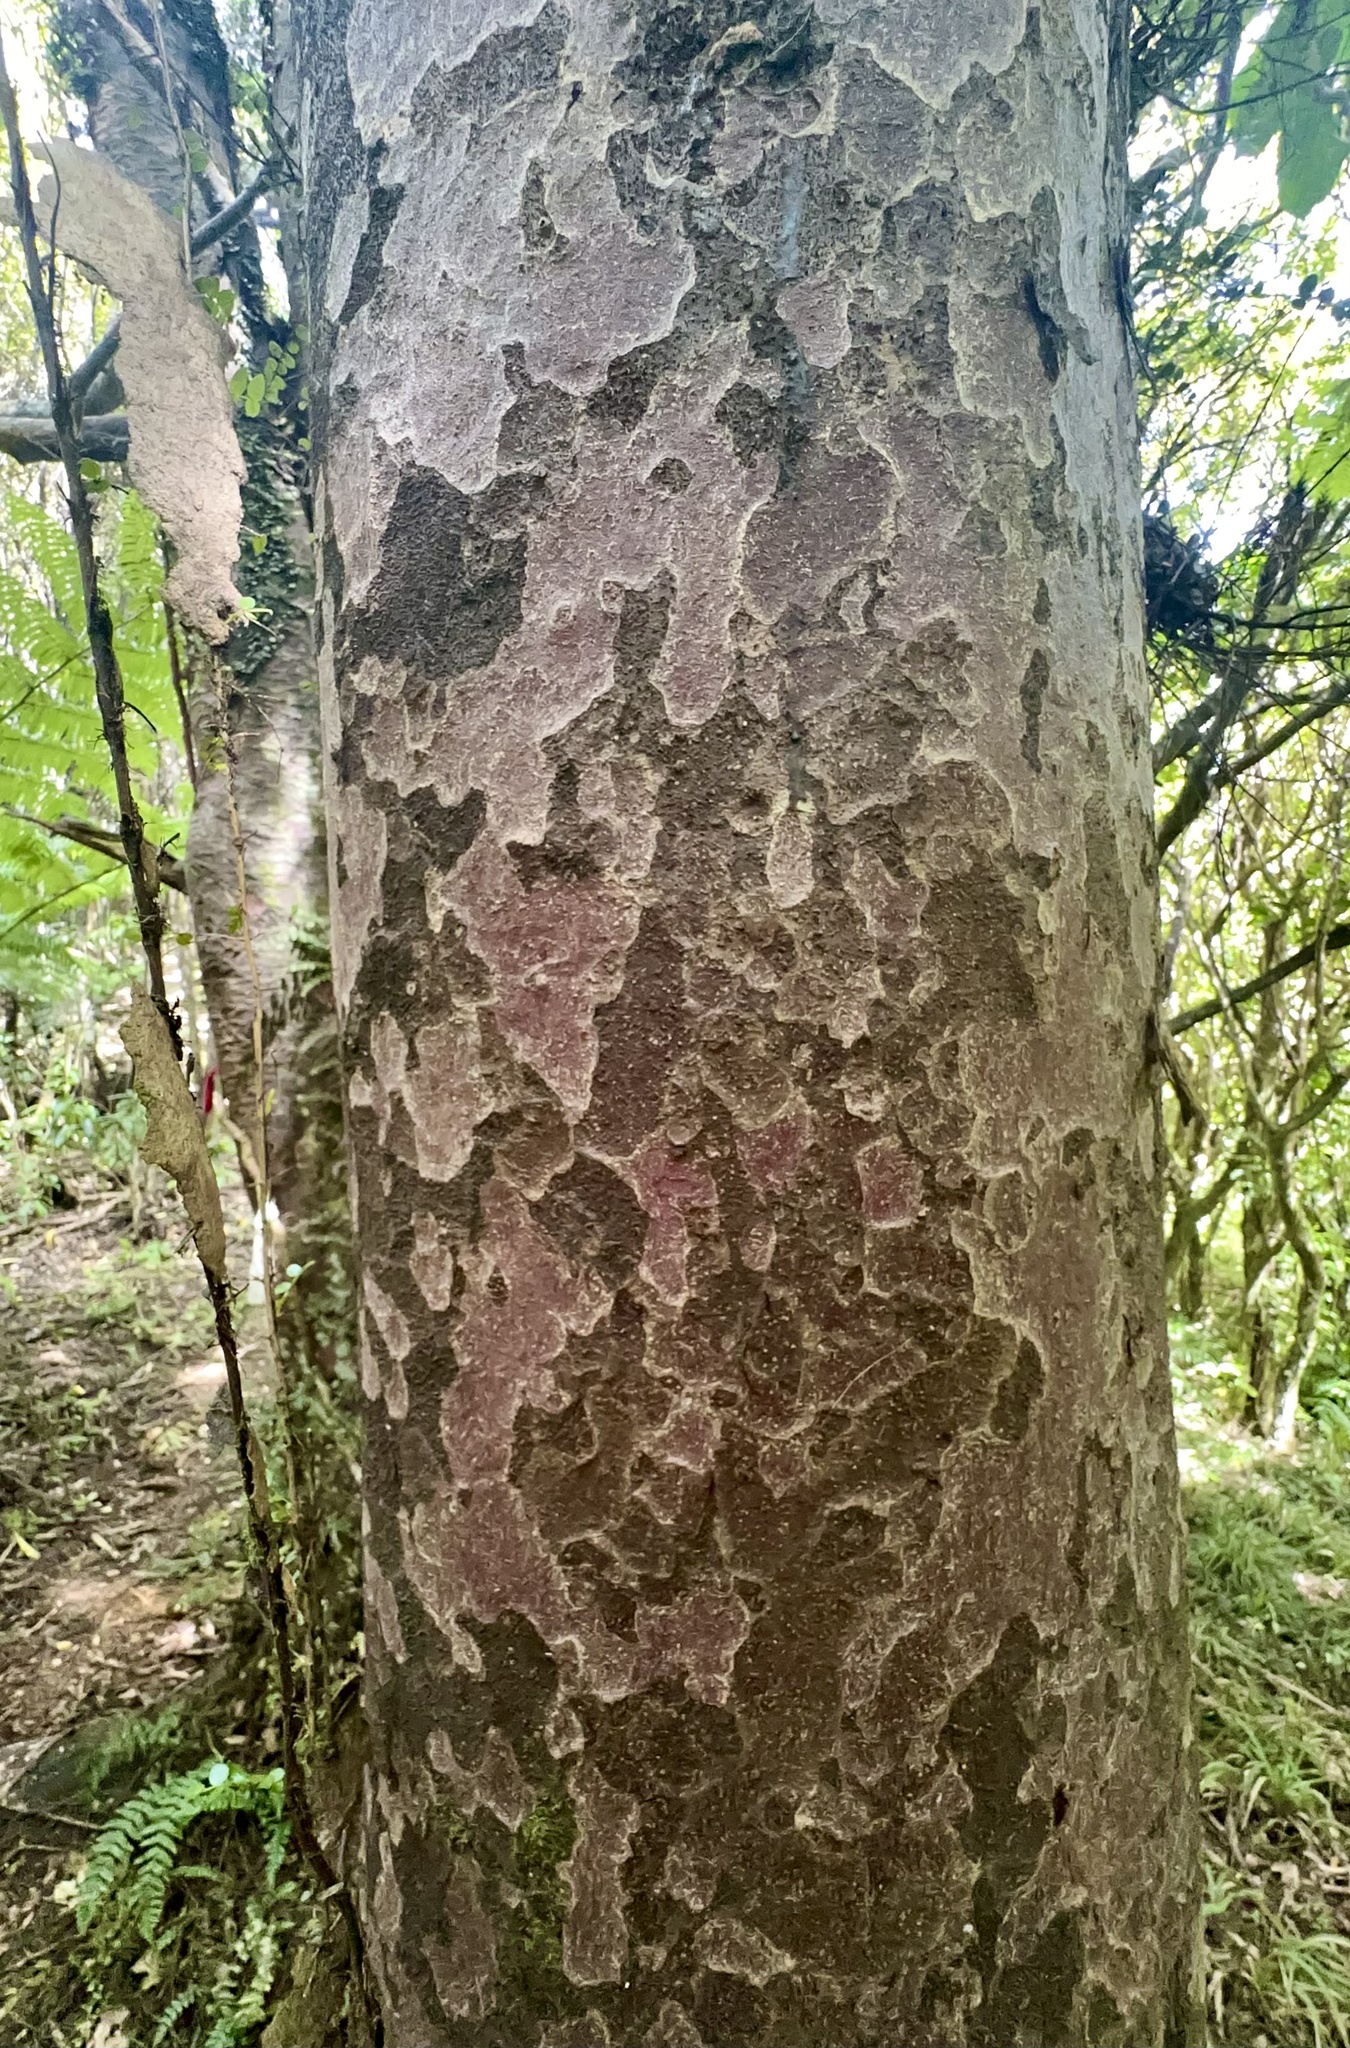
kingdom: Plantae
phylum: Tracheophyta
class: Pinopsida
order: Pinales
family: Podocarpaceae
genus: Prumnopitys
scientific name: Prumnopitys taxifolia
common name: Matai
